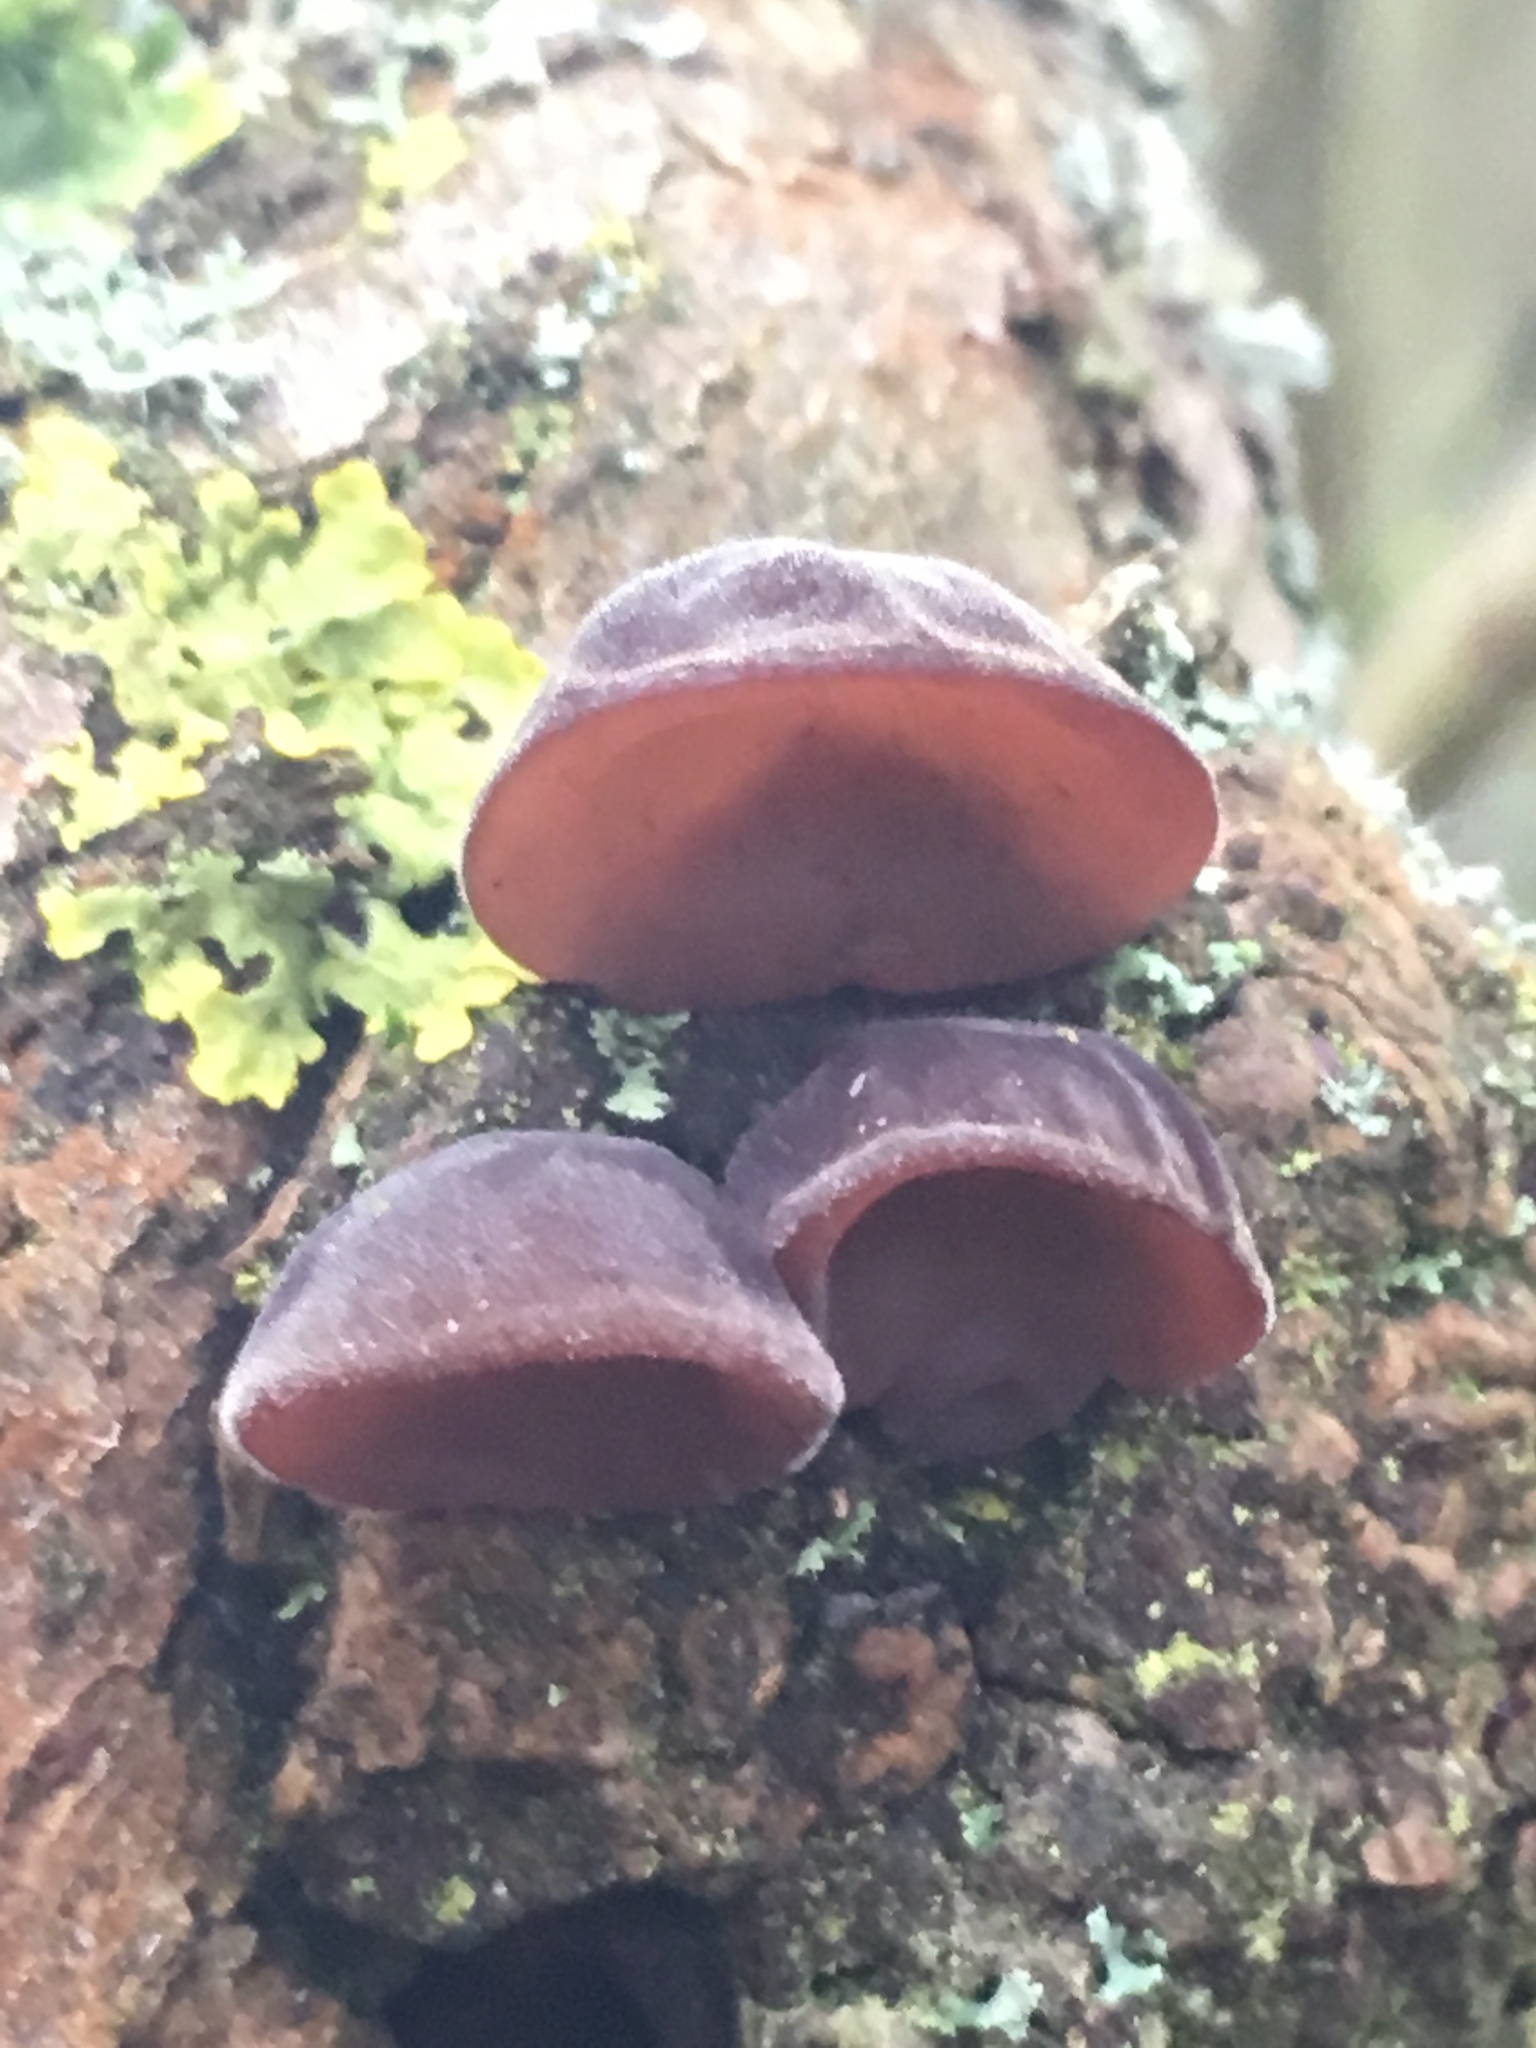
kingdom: Fungi
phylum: Basidiomycota
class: Agaricomycetes
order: Auriculariales
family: Auriculariaceae
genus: Auricularia
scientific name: Auricularia auricula-judae
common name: Jelly ear
